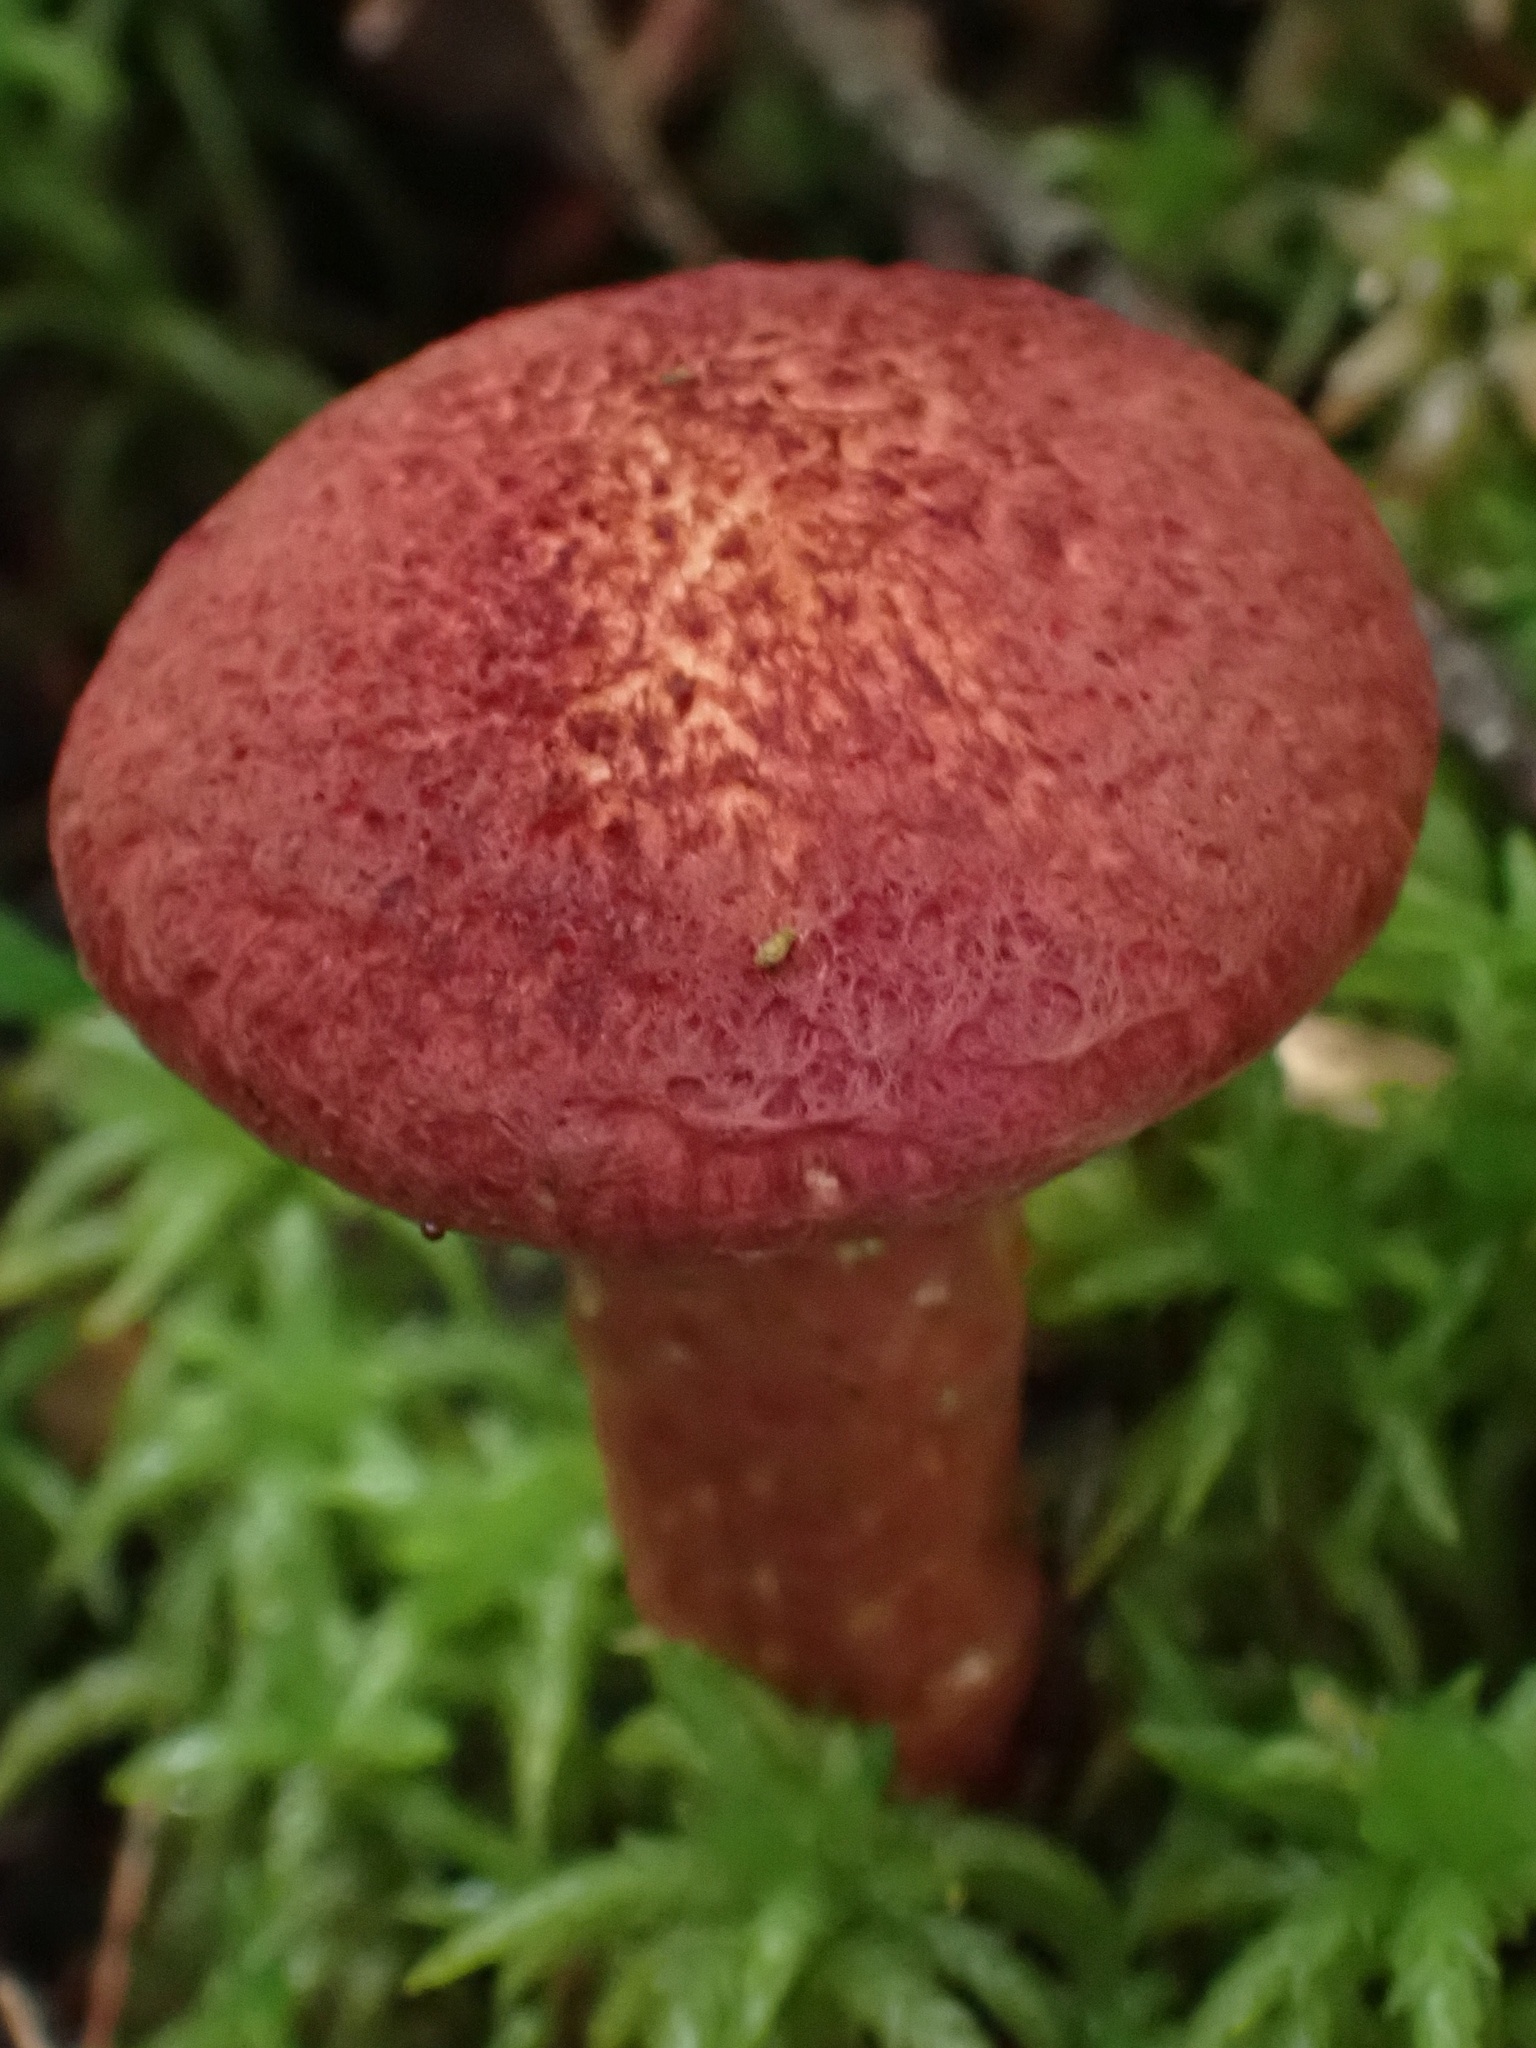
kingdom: Fungi
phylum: Basidiomycota
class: Agaricomycetes
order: Boletales
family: Suillaceae
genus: Suillus
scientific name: Suillus spraguei
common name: Painted suillus
